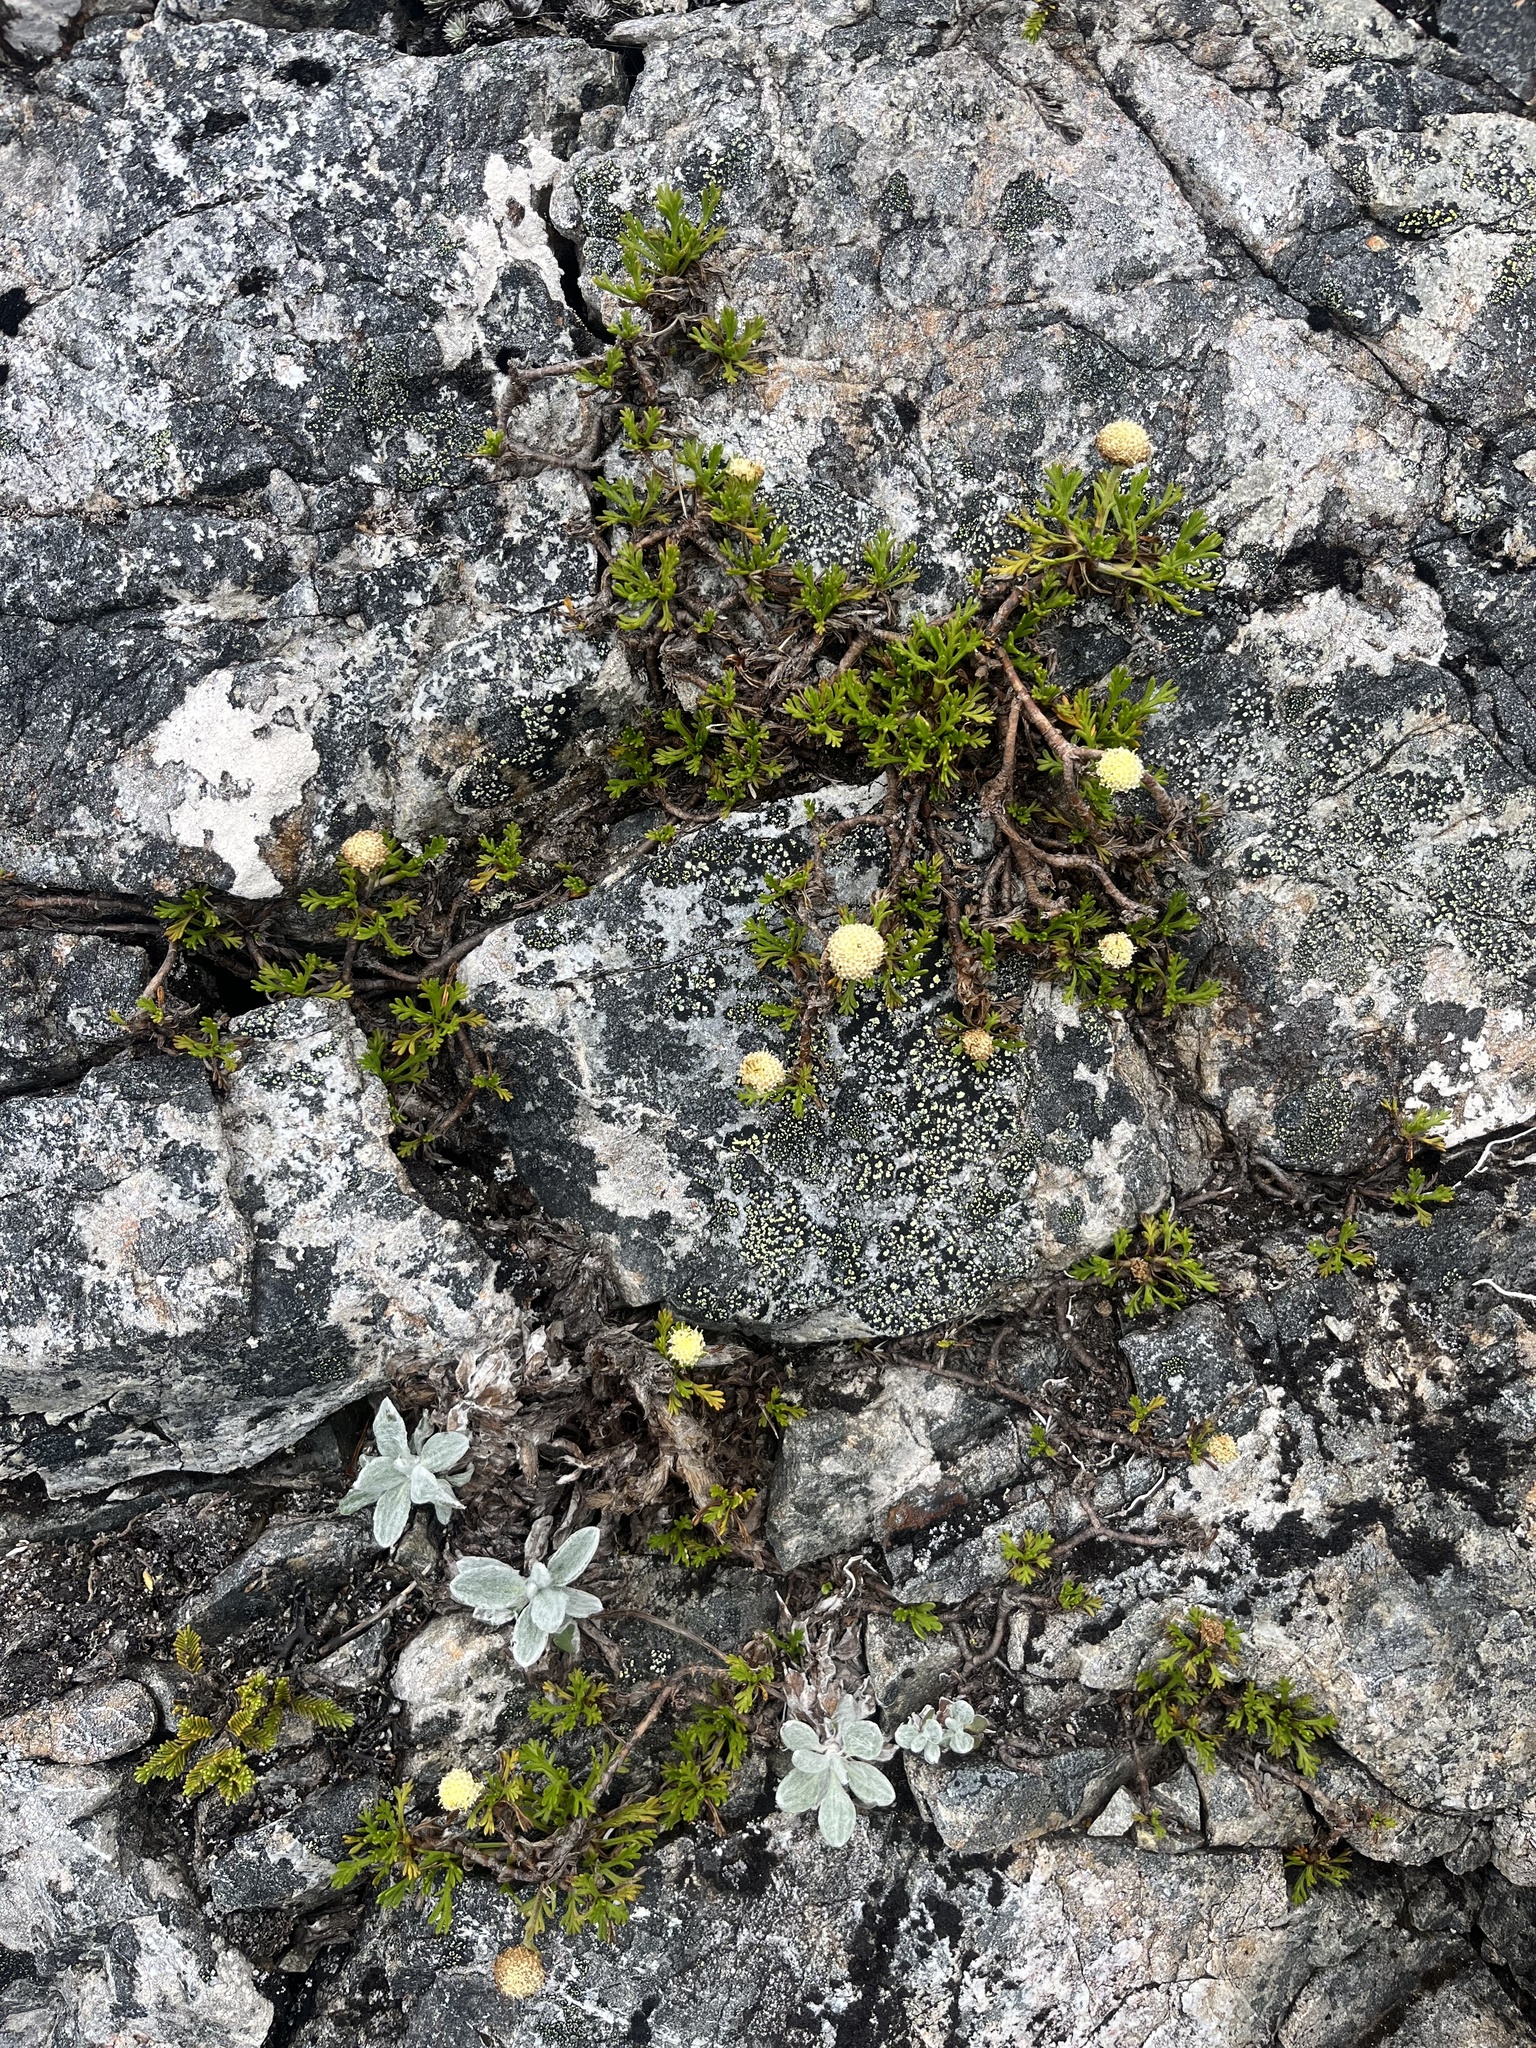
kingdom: Plantae
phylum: Tracheophyta
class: Magnoliopsida
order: Asterales
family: Asteraceae
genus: Leptinella
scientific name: Leptinella pyrethrifolia
